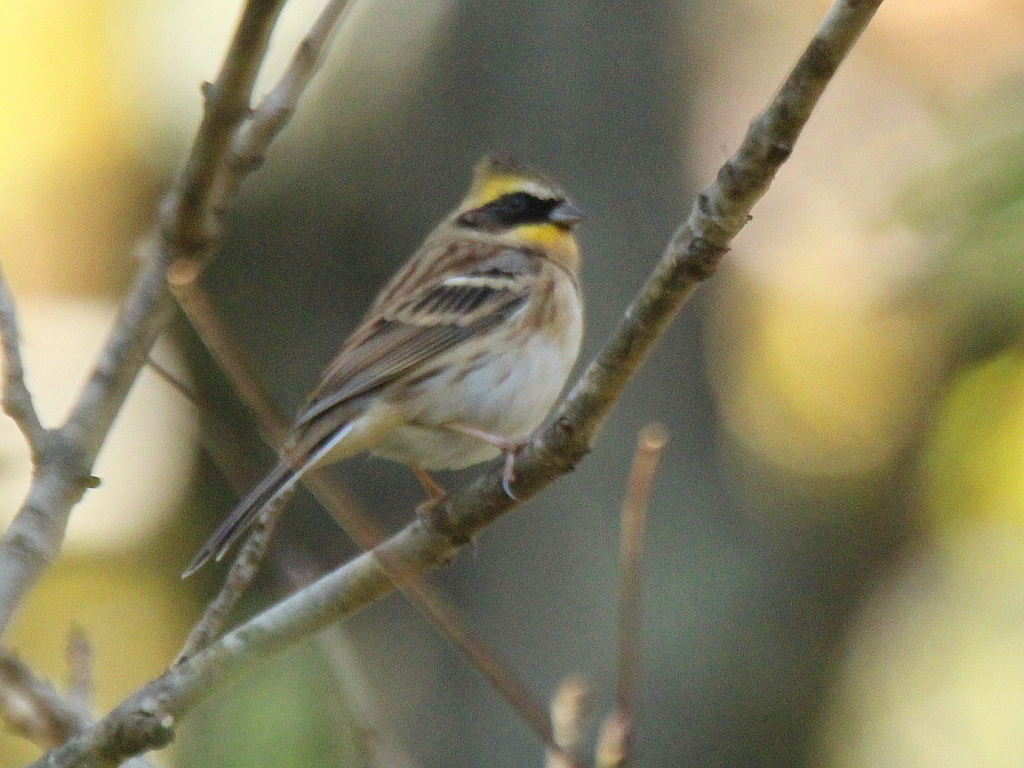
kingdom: Animalia
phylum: Chordata
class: Aves
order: Passeriformes
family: Emberizidae
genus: Emberiza
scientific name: Emberiza elegans
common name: Yellow-throated bunting
